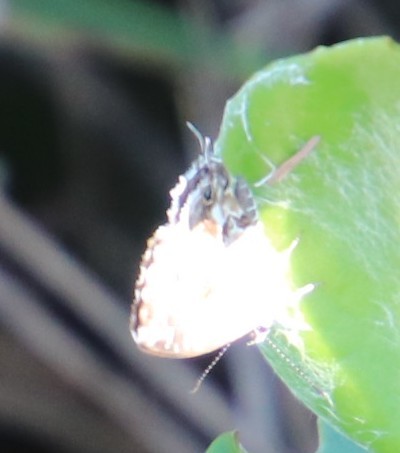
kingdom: Animalia
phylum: Arthropoda
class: Insecta
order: Lepidoptera
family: Lycaenidae
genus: Cacyreus
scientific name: Cacyreus lingeus
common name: Bush bronze
